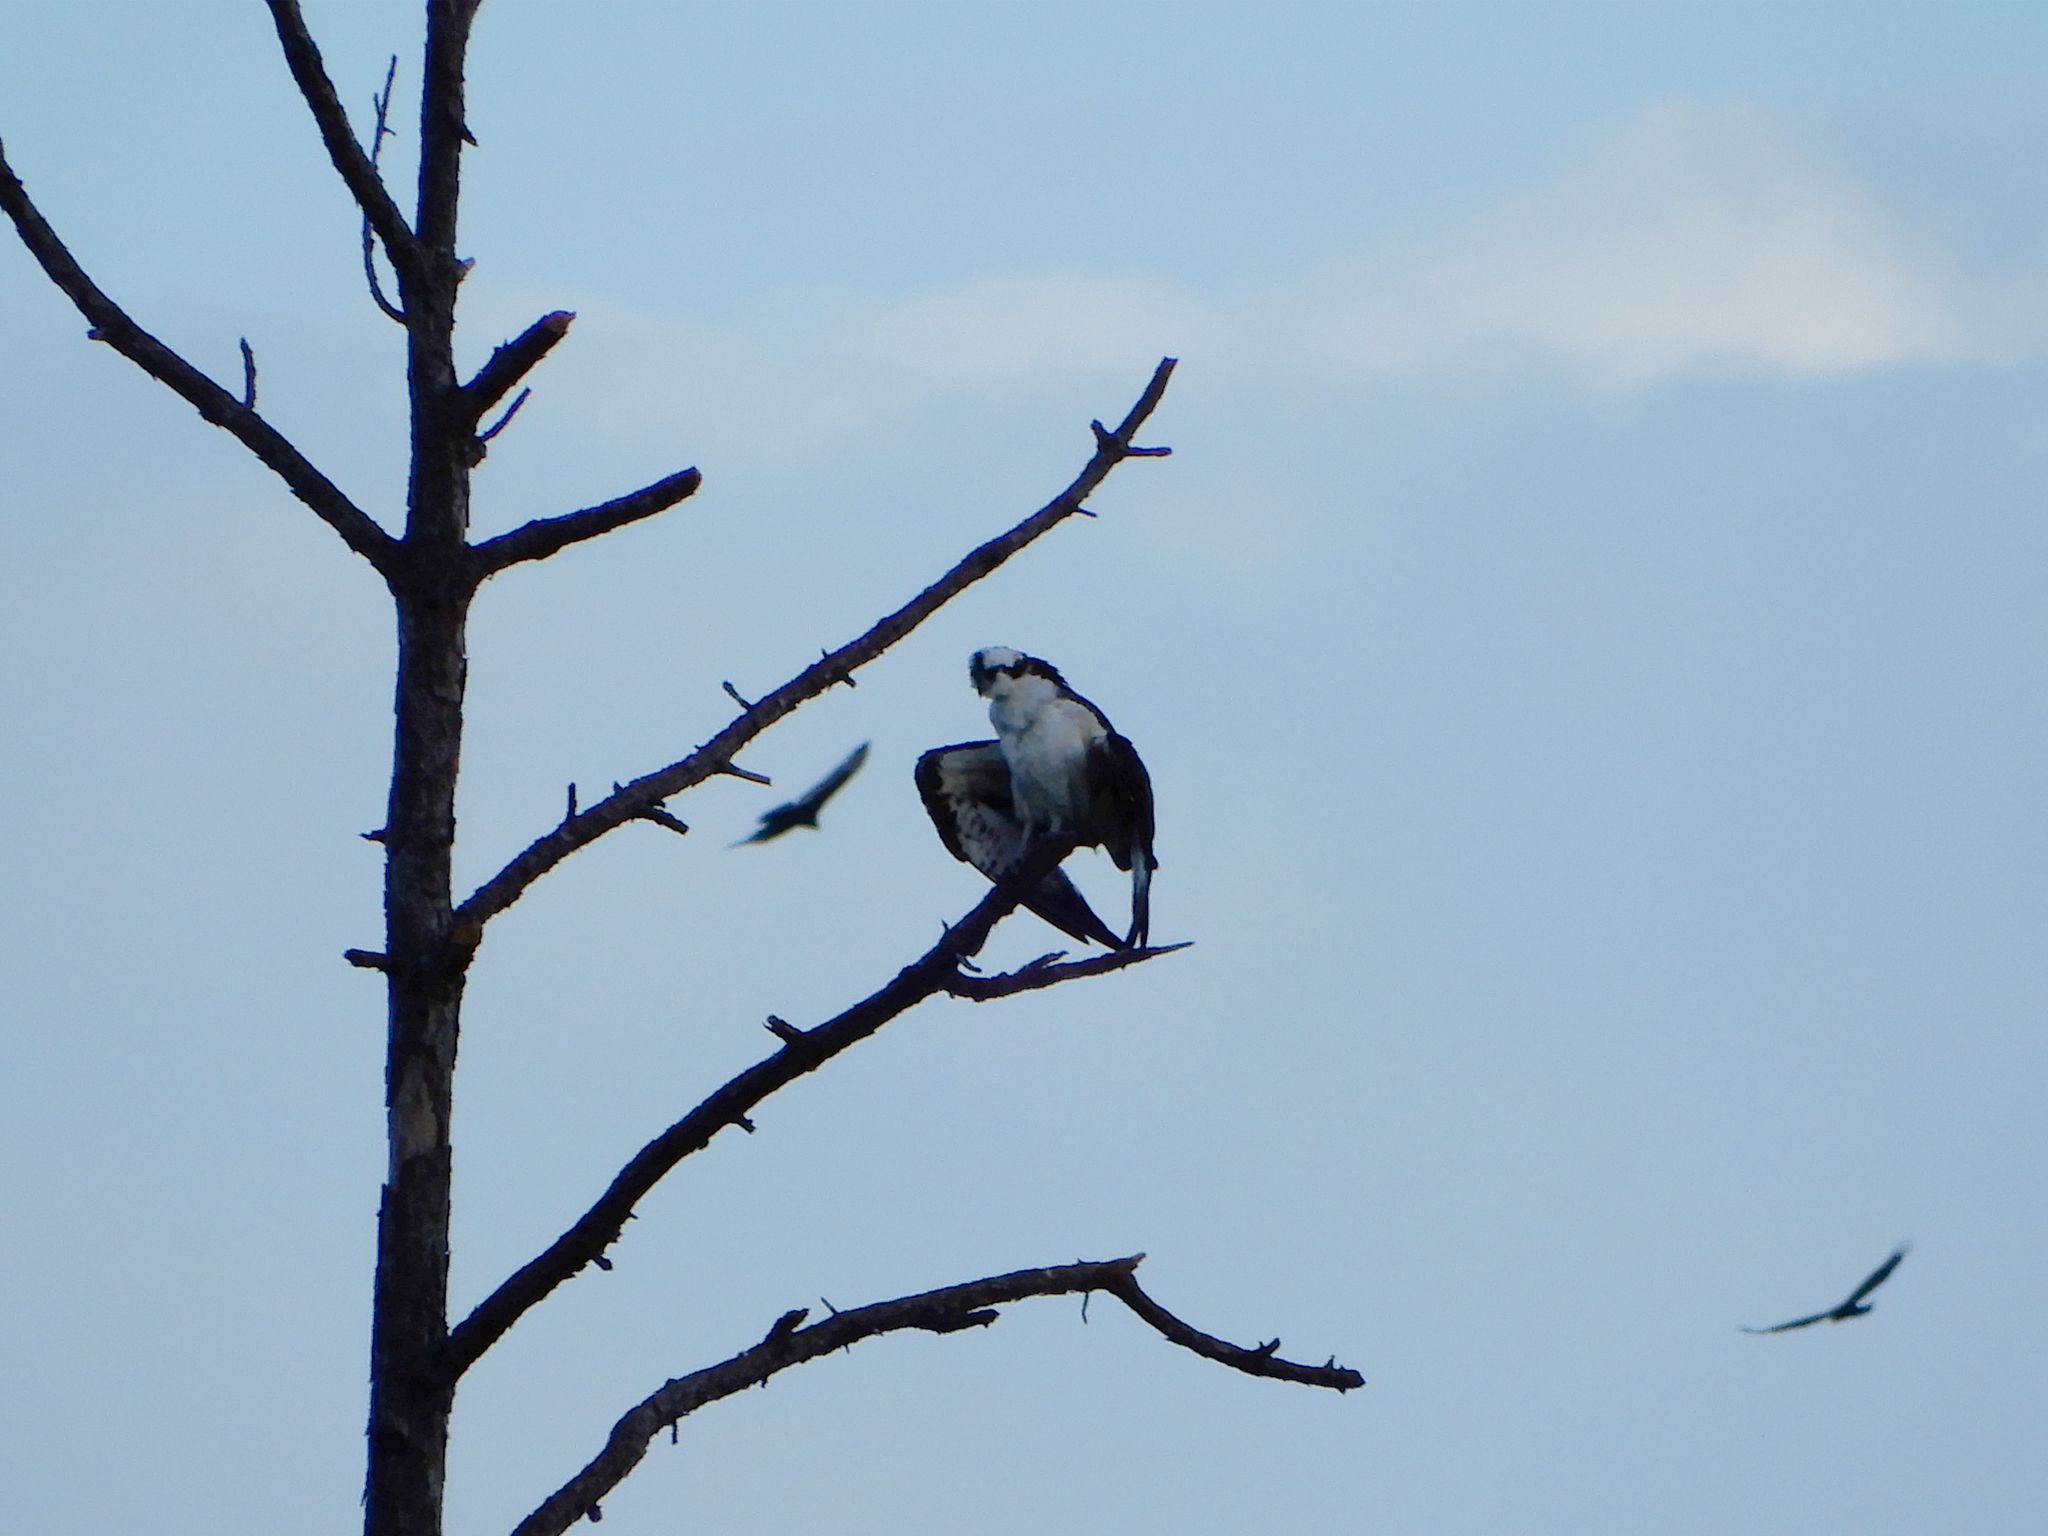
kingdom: Animalia
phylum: Chordata
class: Aves
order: Accipitriformes
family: Pandionidae
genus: Pandion
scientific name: Pandion haliaetus
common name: Osprey
